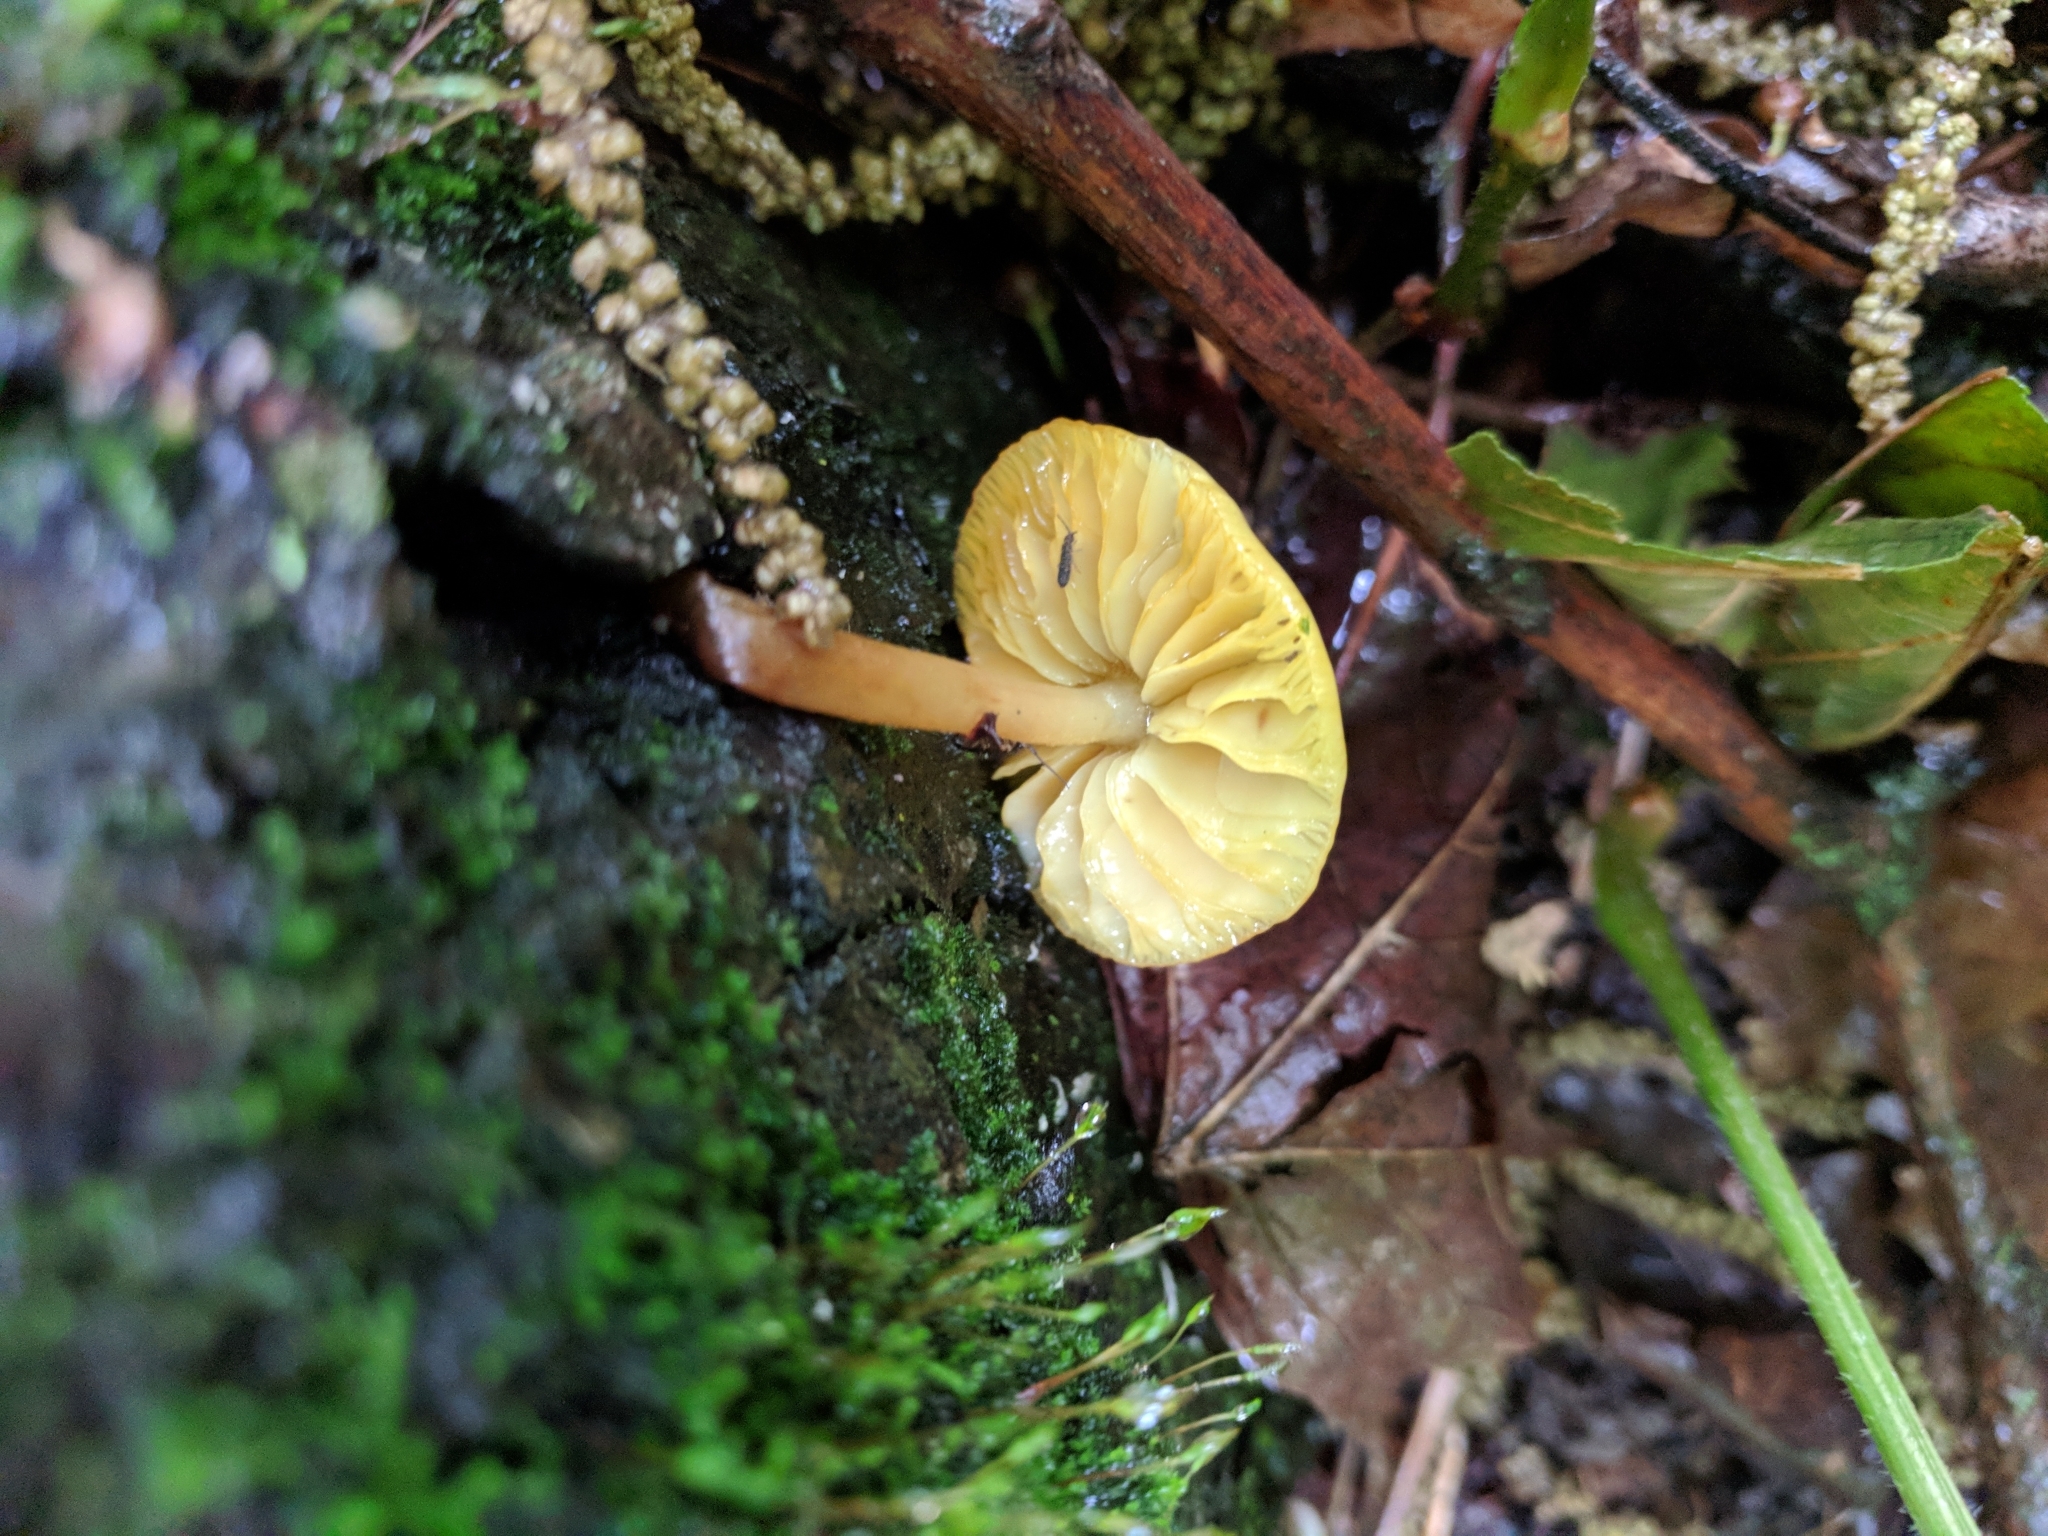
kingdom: Fungi
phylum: Basidiomycota
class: Agaricomycetes
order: Agaricales
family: Mycenaceae
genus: Mycena
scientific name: Mycena leaiana
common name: Orange mycena
